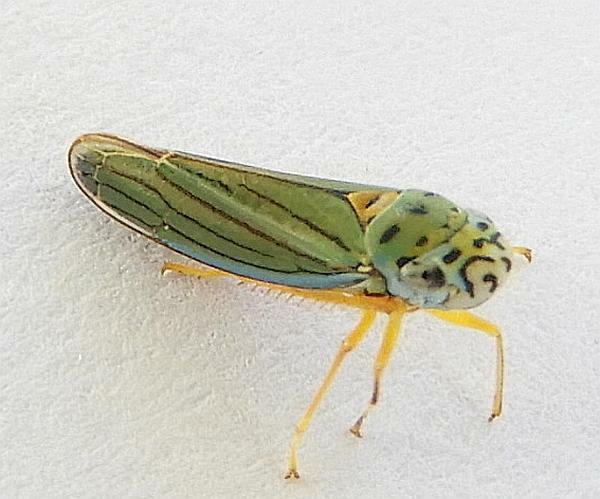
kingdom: Animalia
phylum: Arthropoda
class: Insecta
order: Hemiptera
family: Cicadellidae
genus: Graphocephala
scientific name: Graphocephala atropunctata
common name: Blue-green sharpshooter
